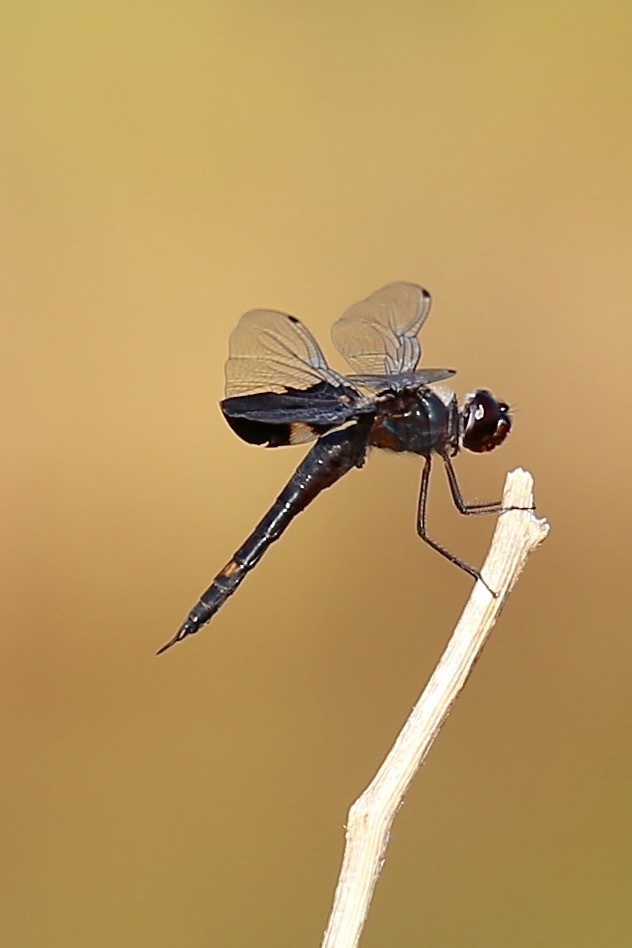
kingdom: Animalia
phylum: Arthropoda
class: Insecta
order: Odonata
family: Libellulidae
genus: Tramea
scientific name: Tramea lacerata
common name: Black saddlebags
